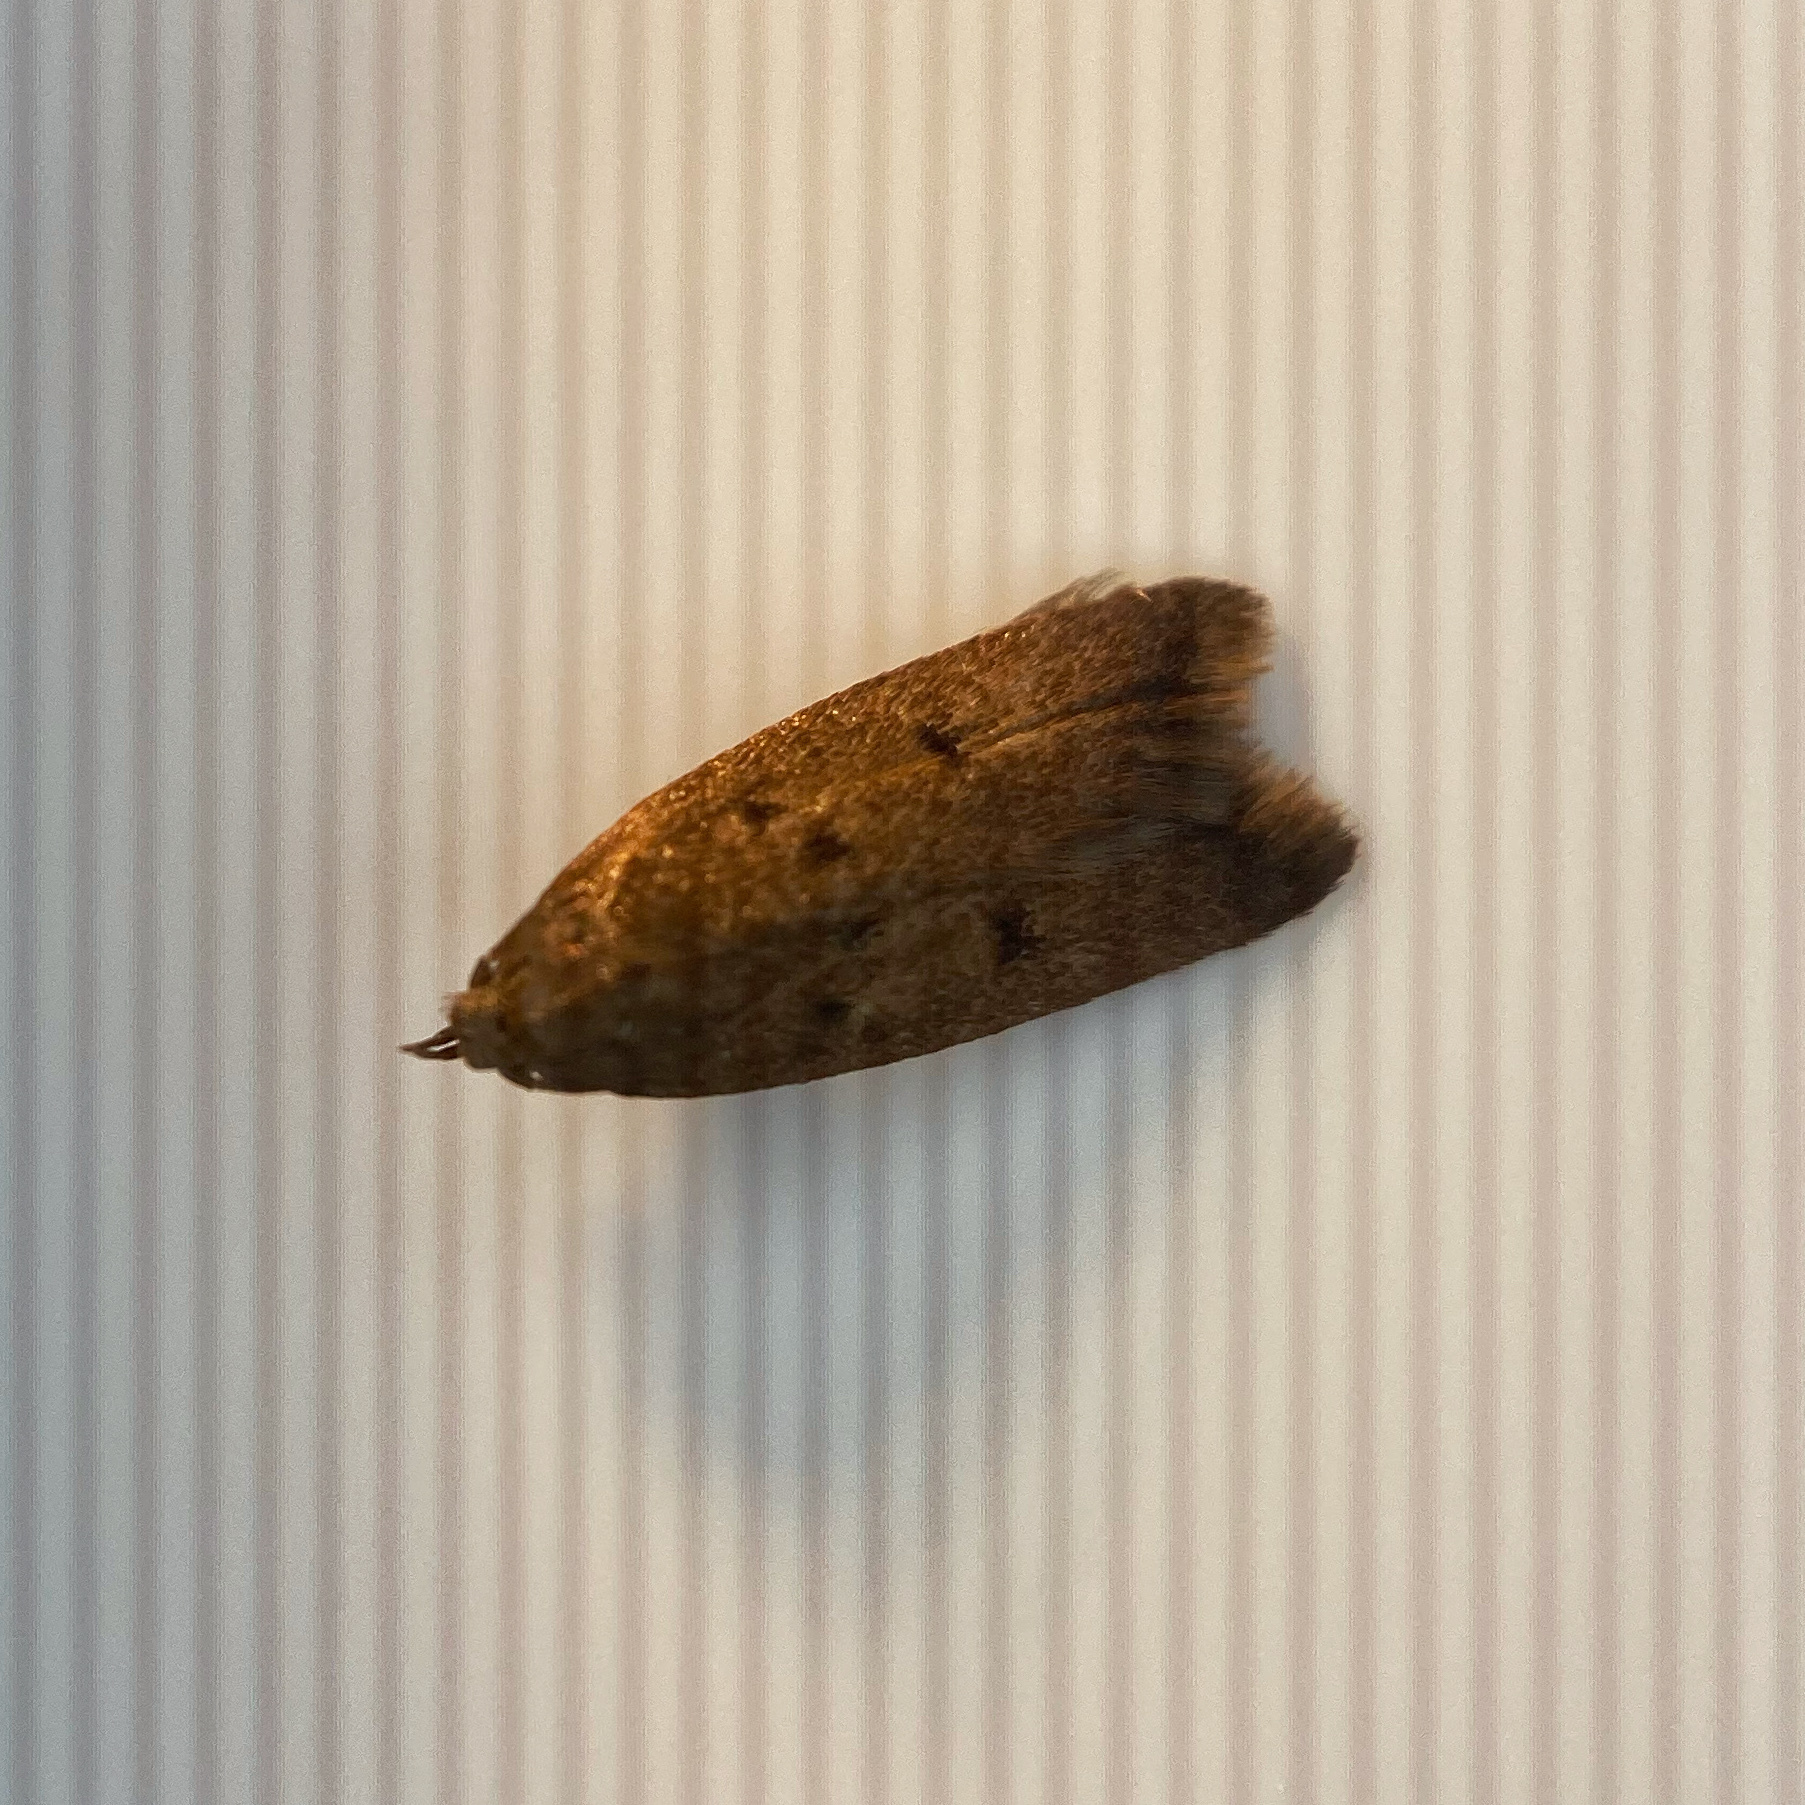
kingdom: Animalia
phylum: Arthropoda
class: Insecta
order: Lepidoptera
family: Oecophoridae
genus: Tachystola
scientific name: Tachystola acroxantha
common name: Ruddy streak
